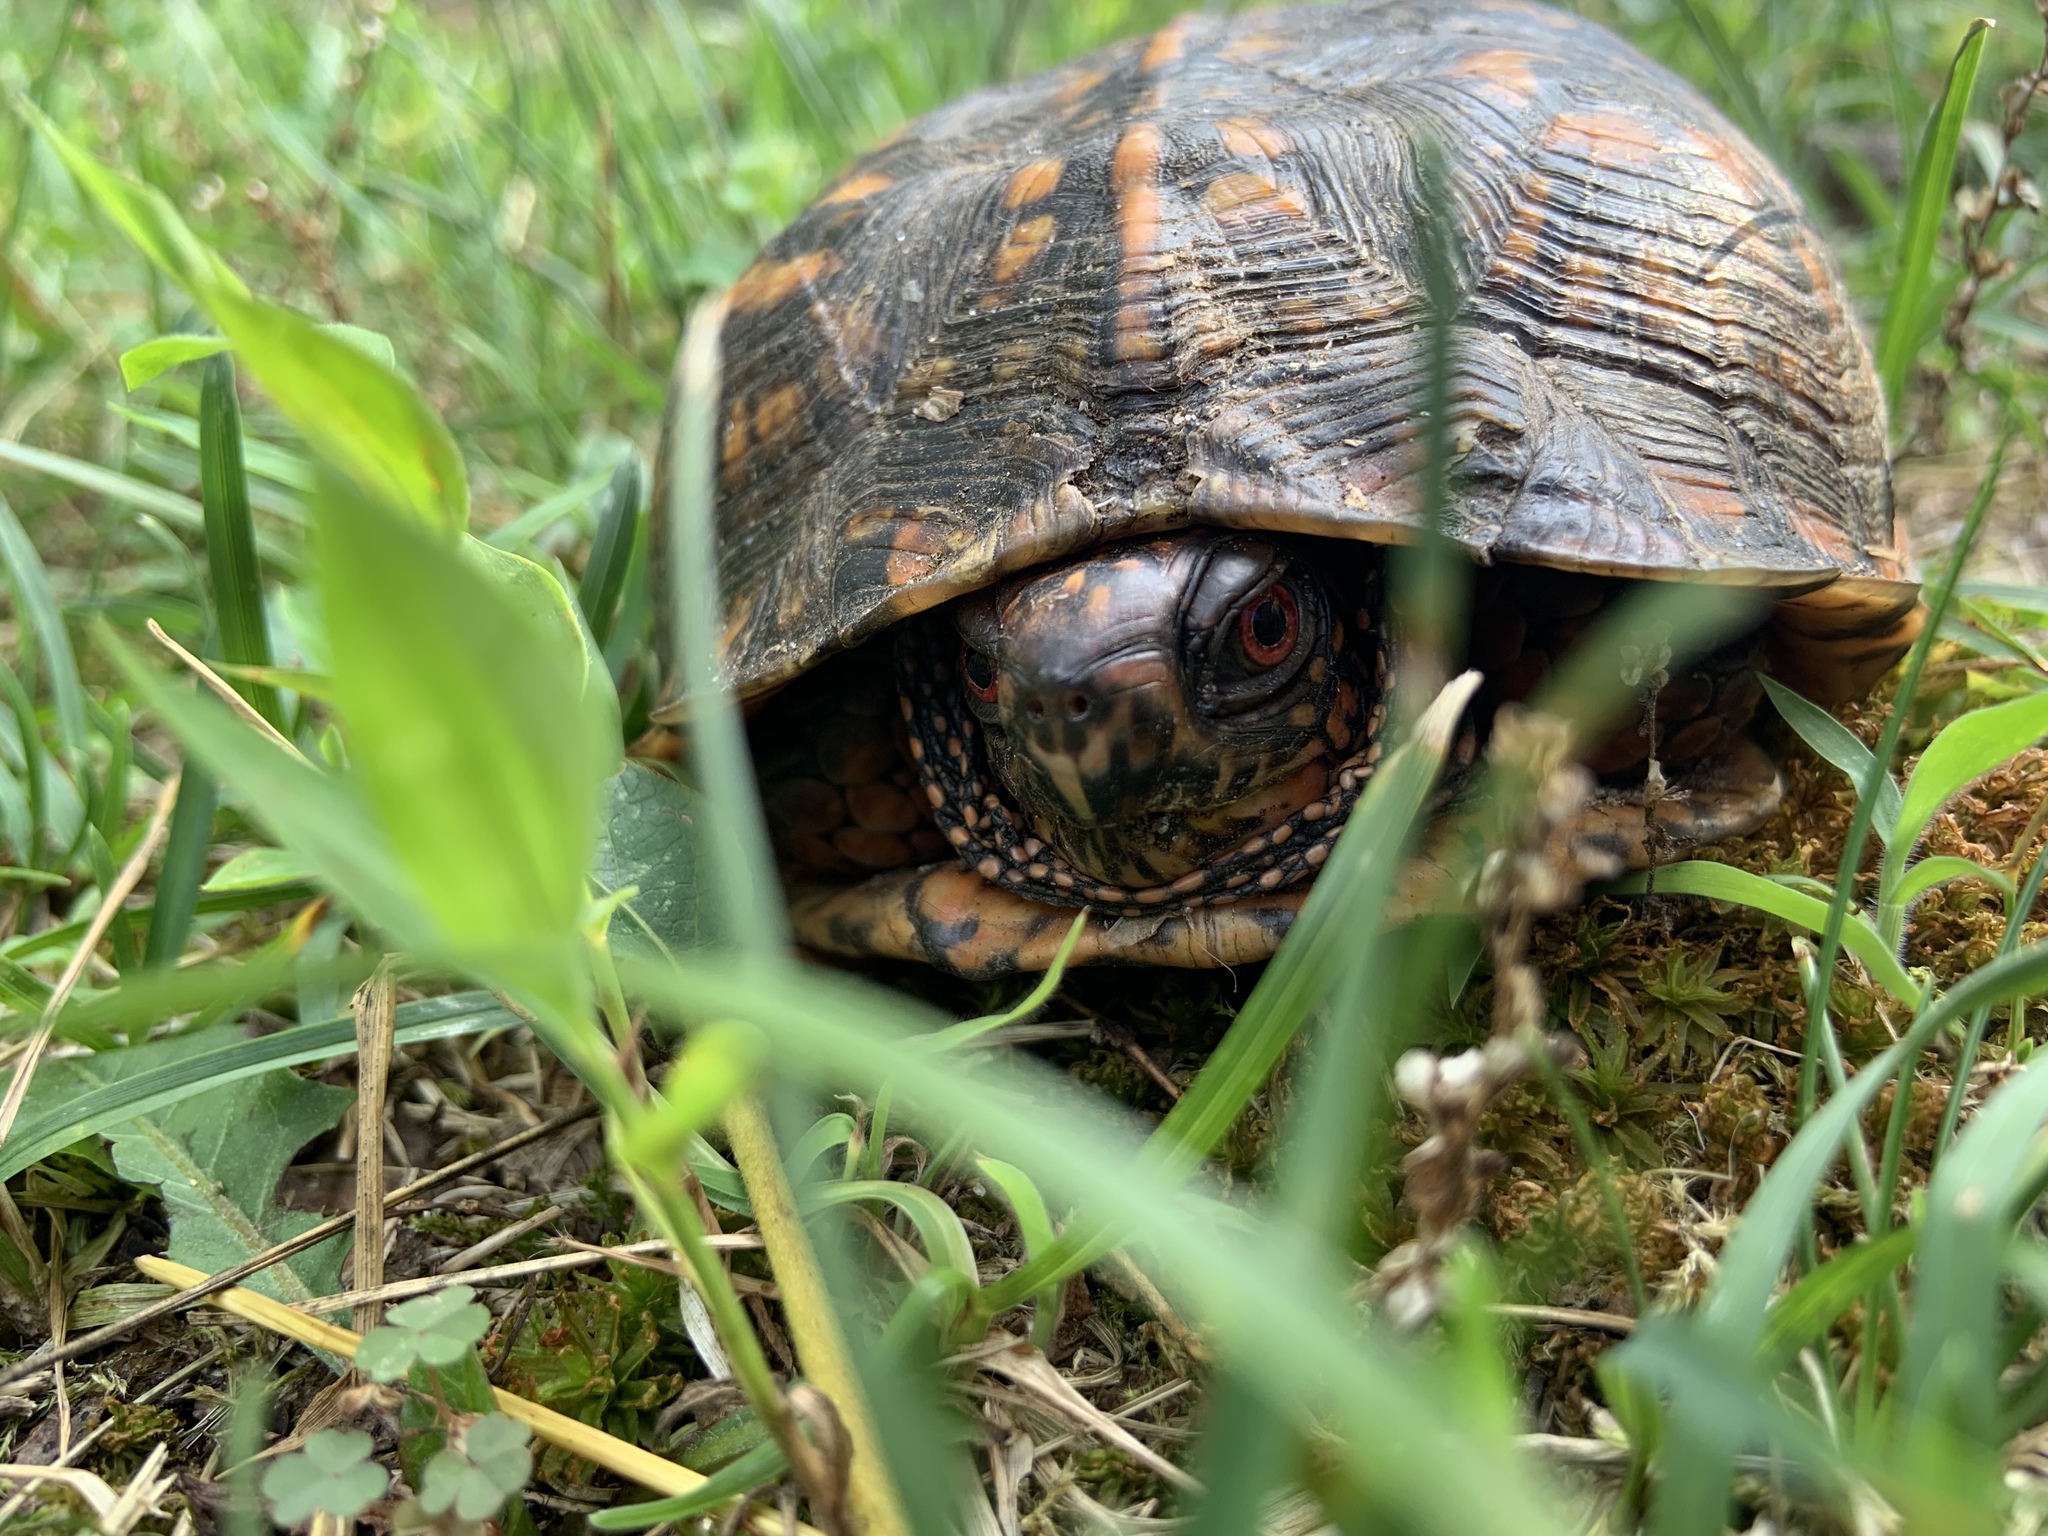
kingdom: Animalia
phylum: Chordata
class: Testudines
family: Emydidae
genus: Terrapene
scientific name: Terrapene carolina
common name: Common box turtle
